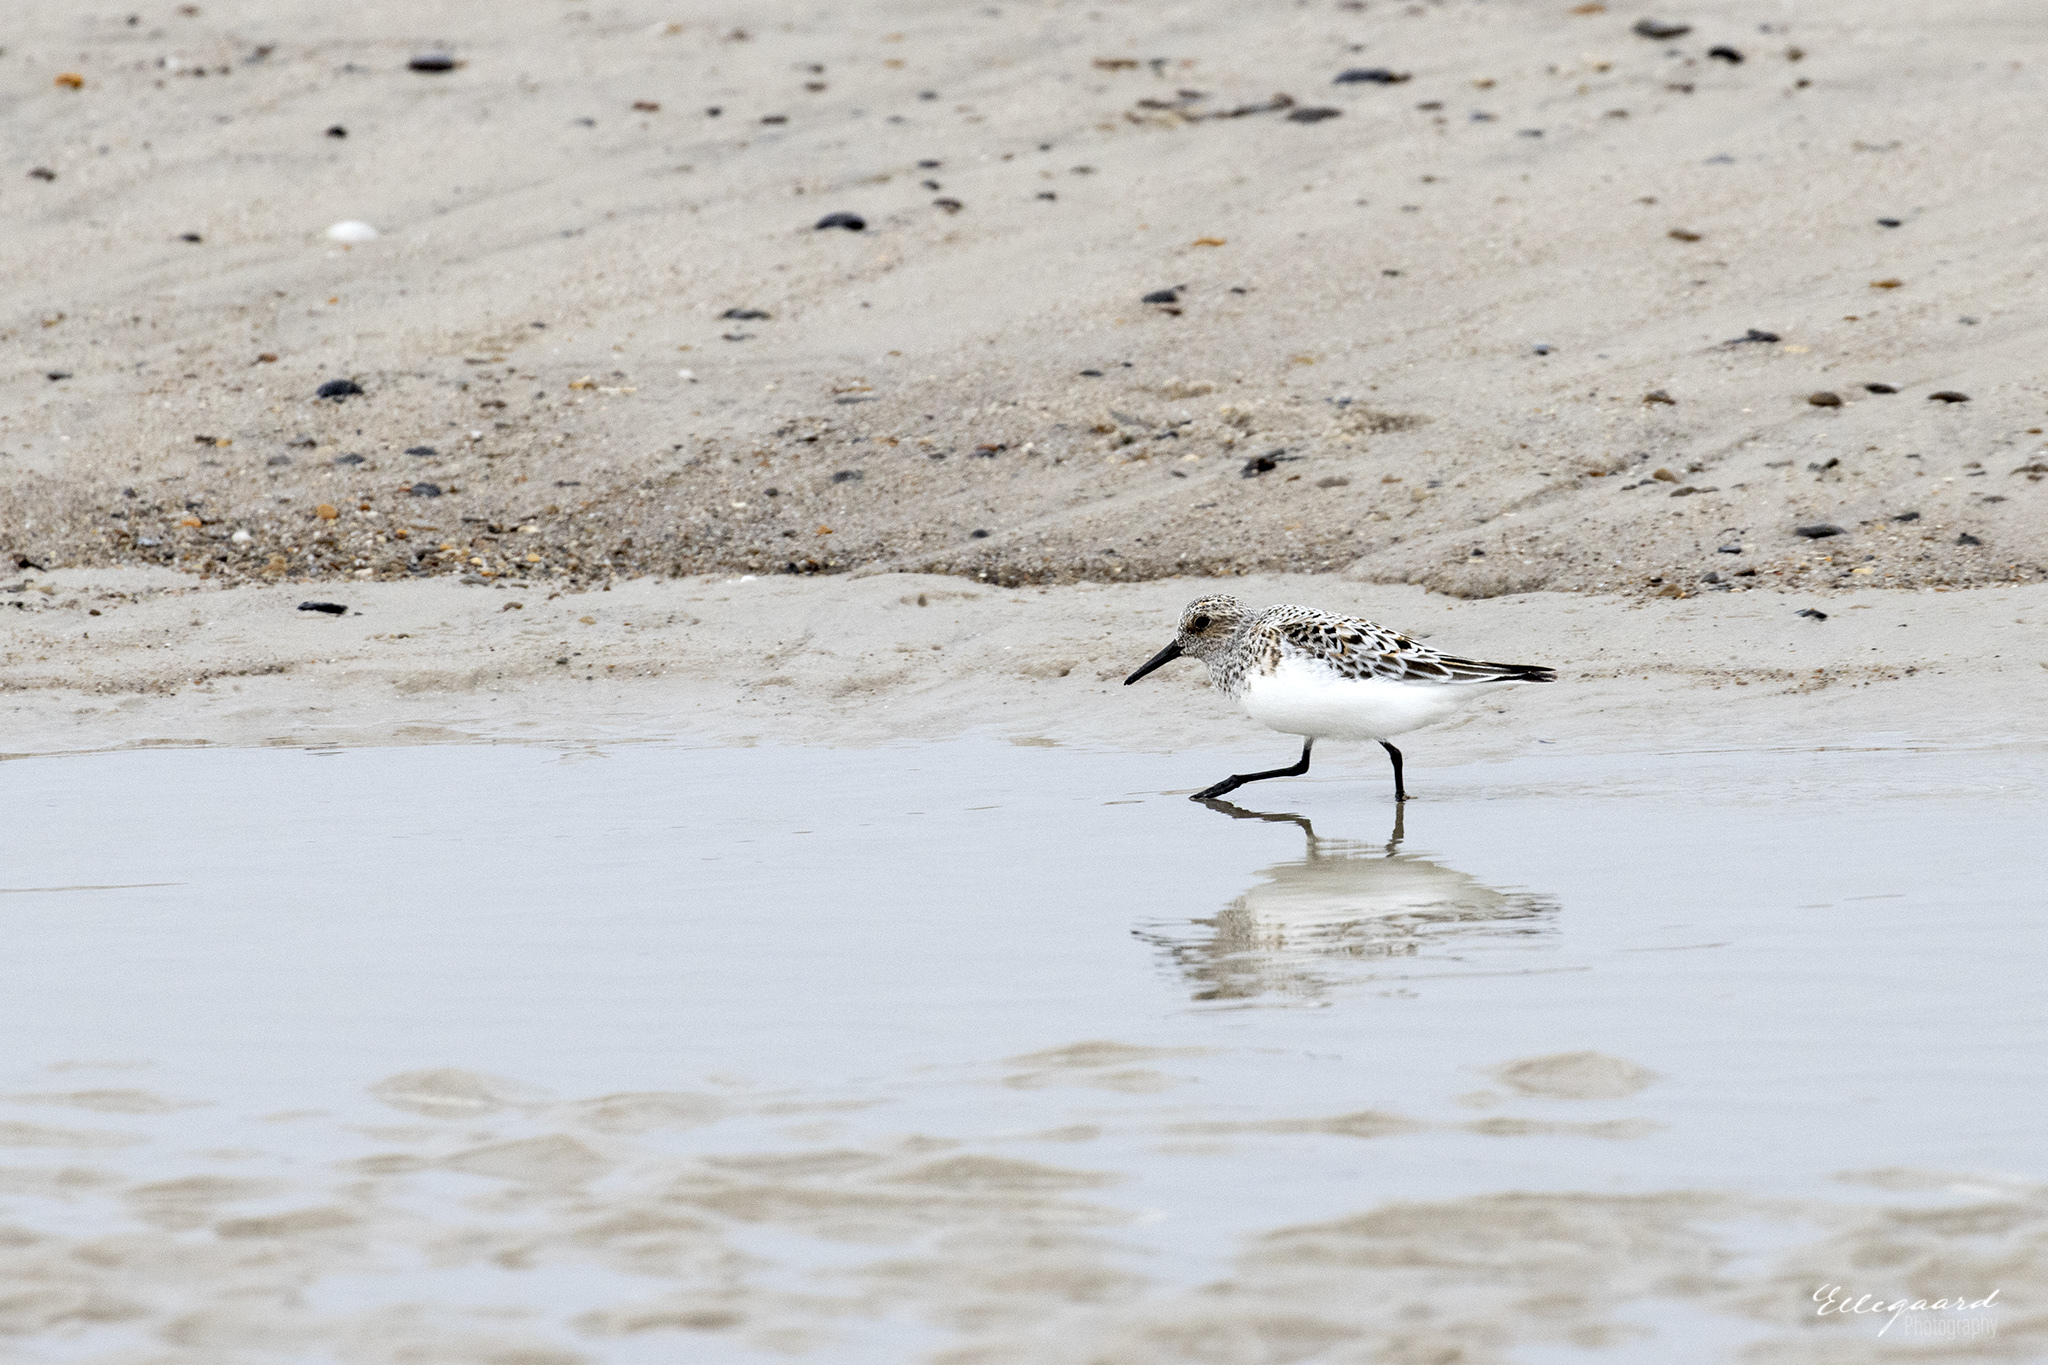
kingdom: Animalia
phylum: Chordata
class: Aves
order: Charadriiformes
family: Scolopacidae
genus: Calidris
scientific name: Calidris alba
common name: Sanderling
